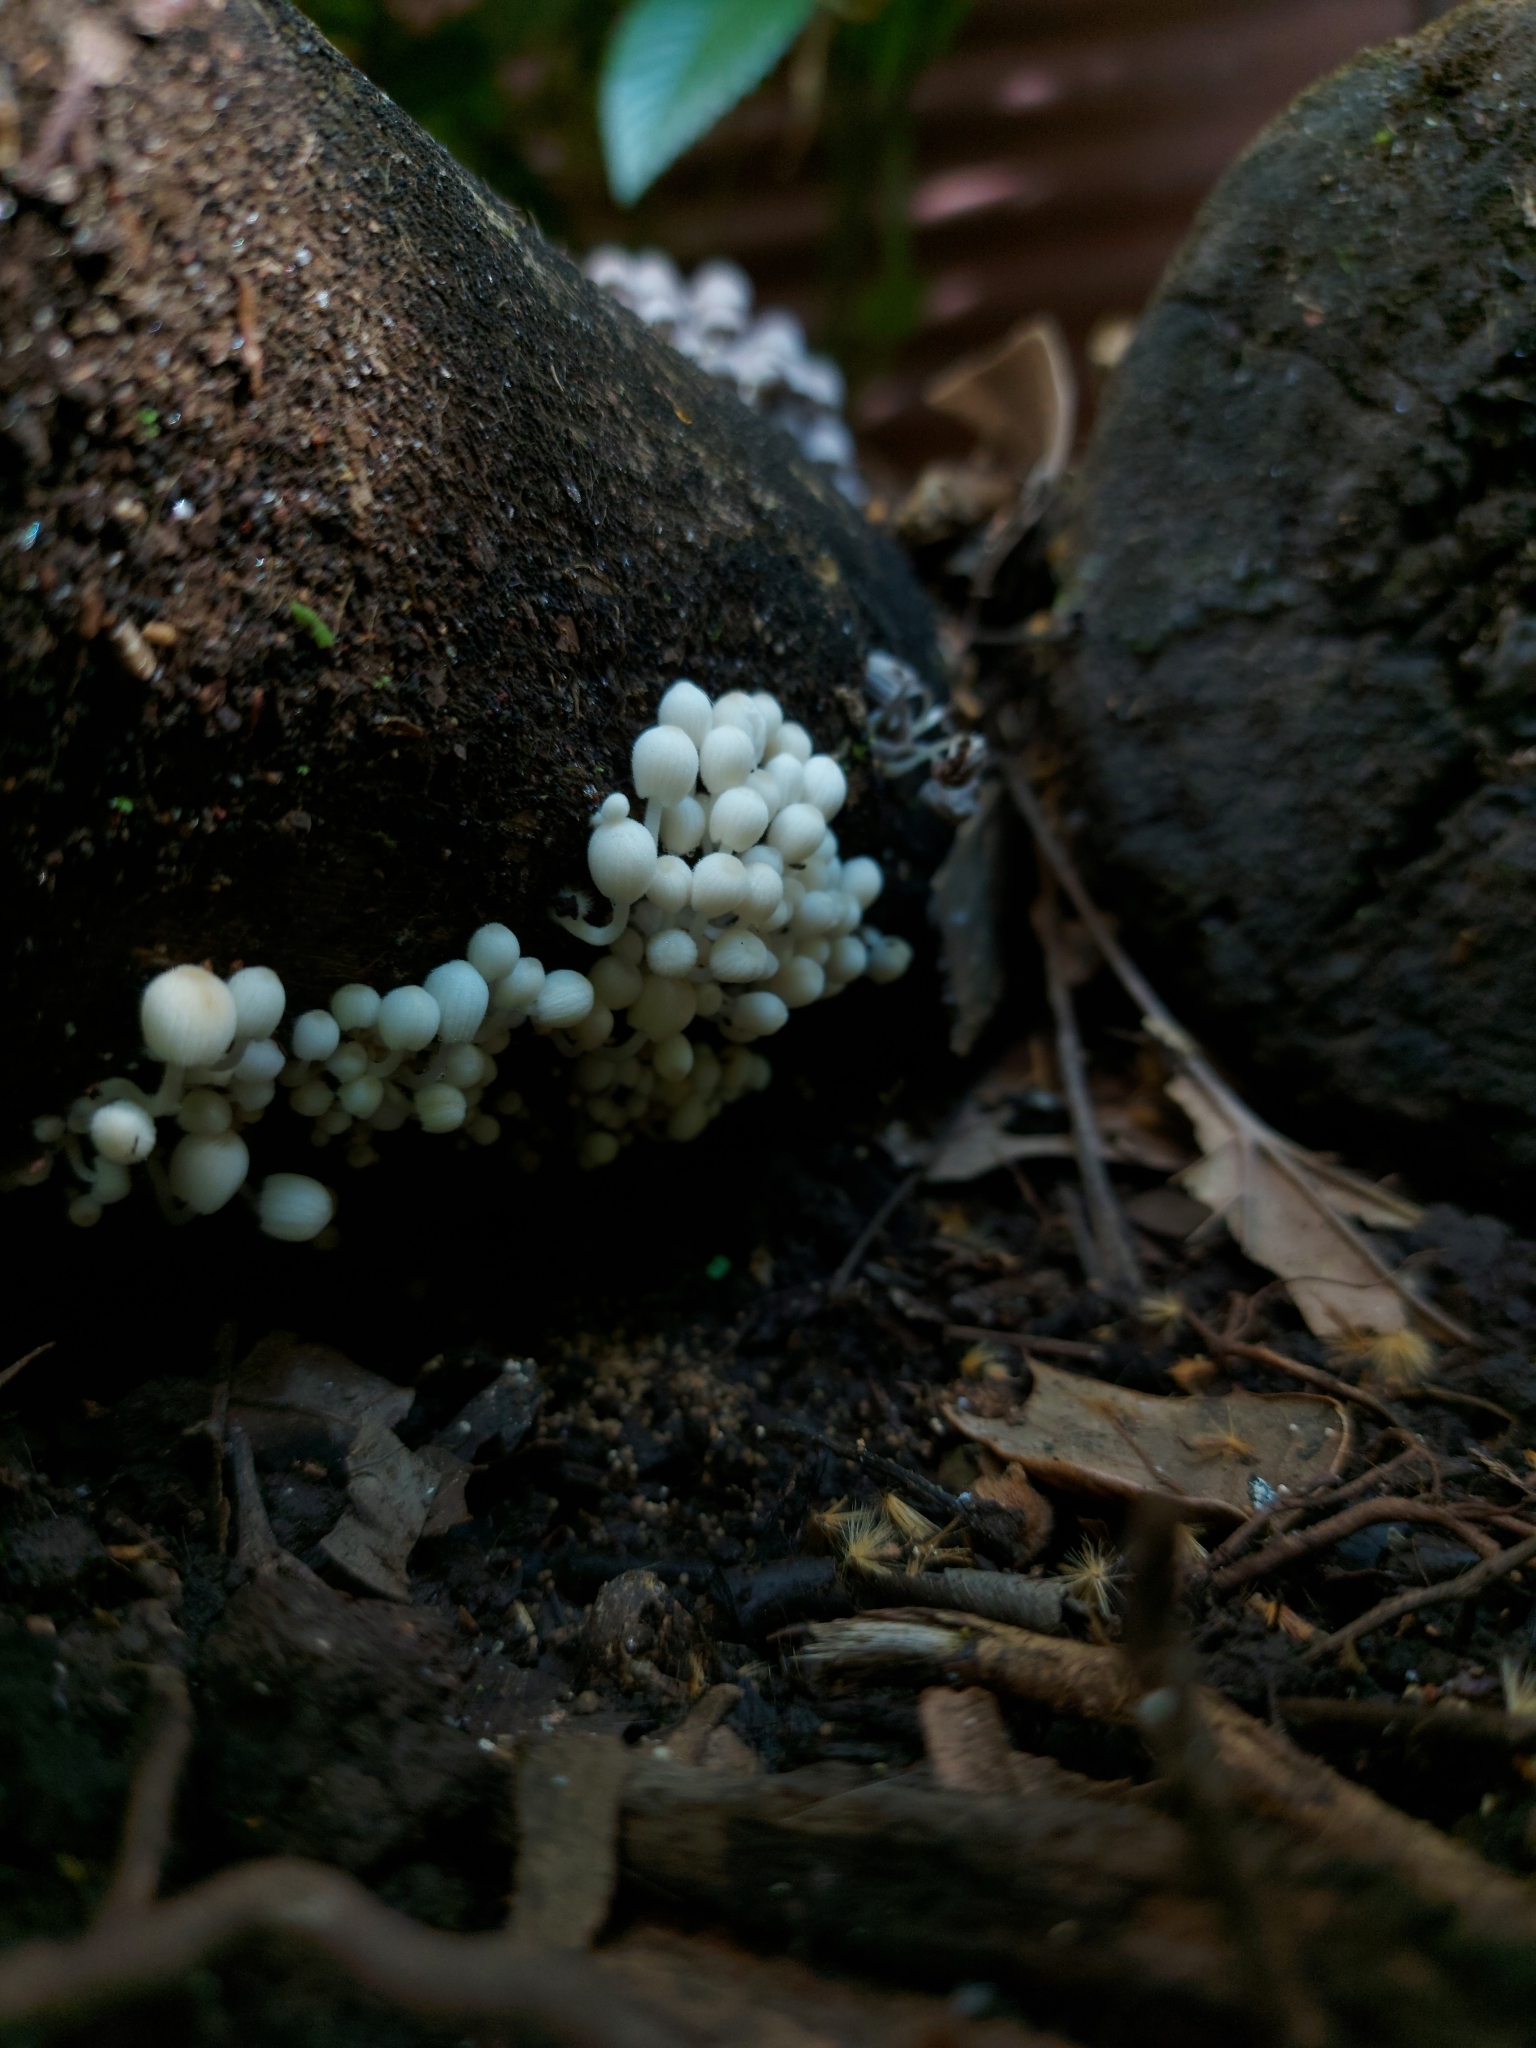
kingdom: Fungi
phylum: Basidiomycota
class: Agaricomycetes
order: Agaricales
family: Psathyrellaceae
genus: Coprinellus
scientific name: Coprinellus disseminatus
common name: Fairies' bonnets
